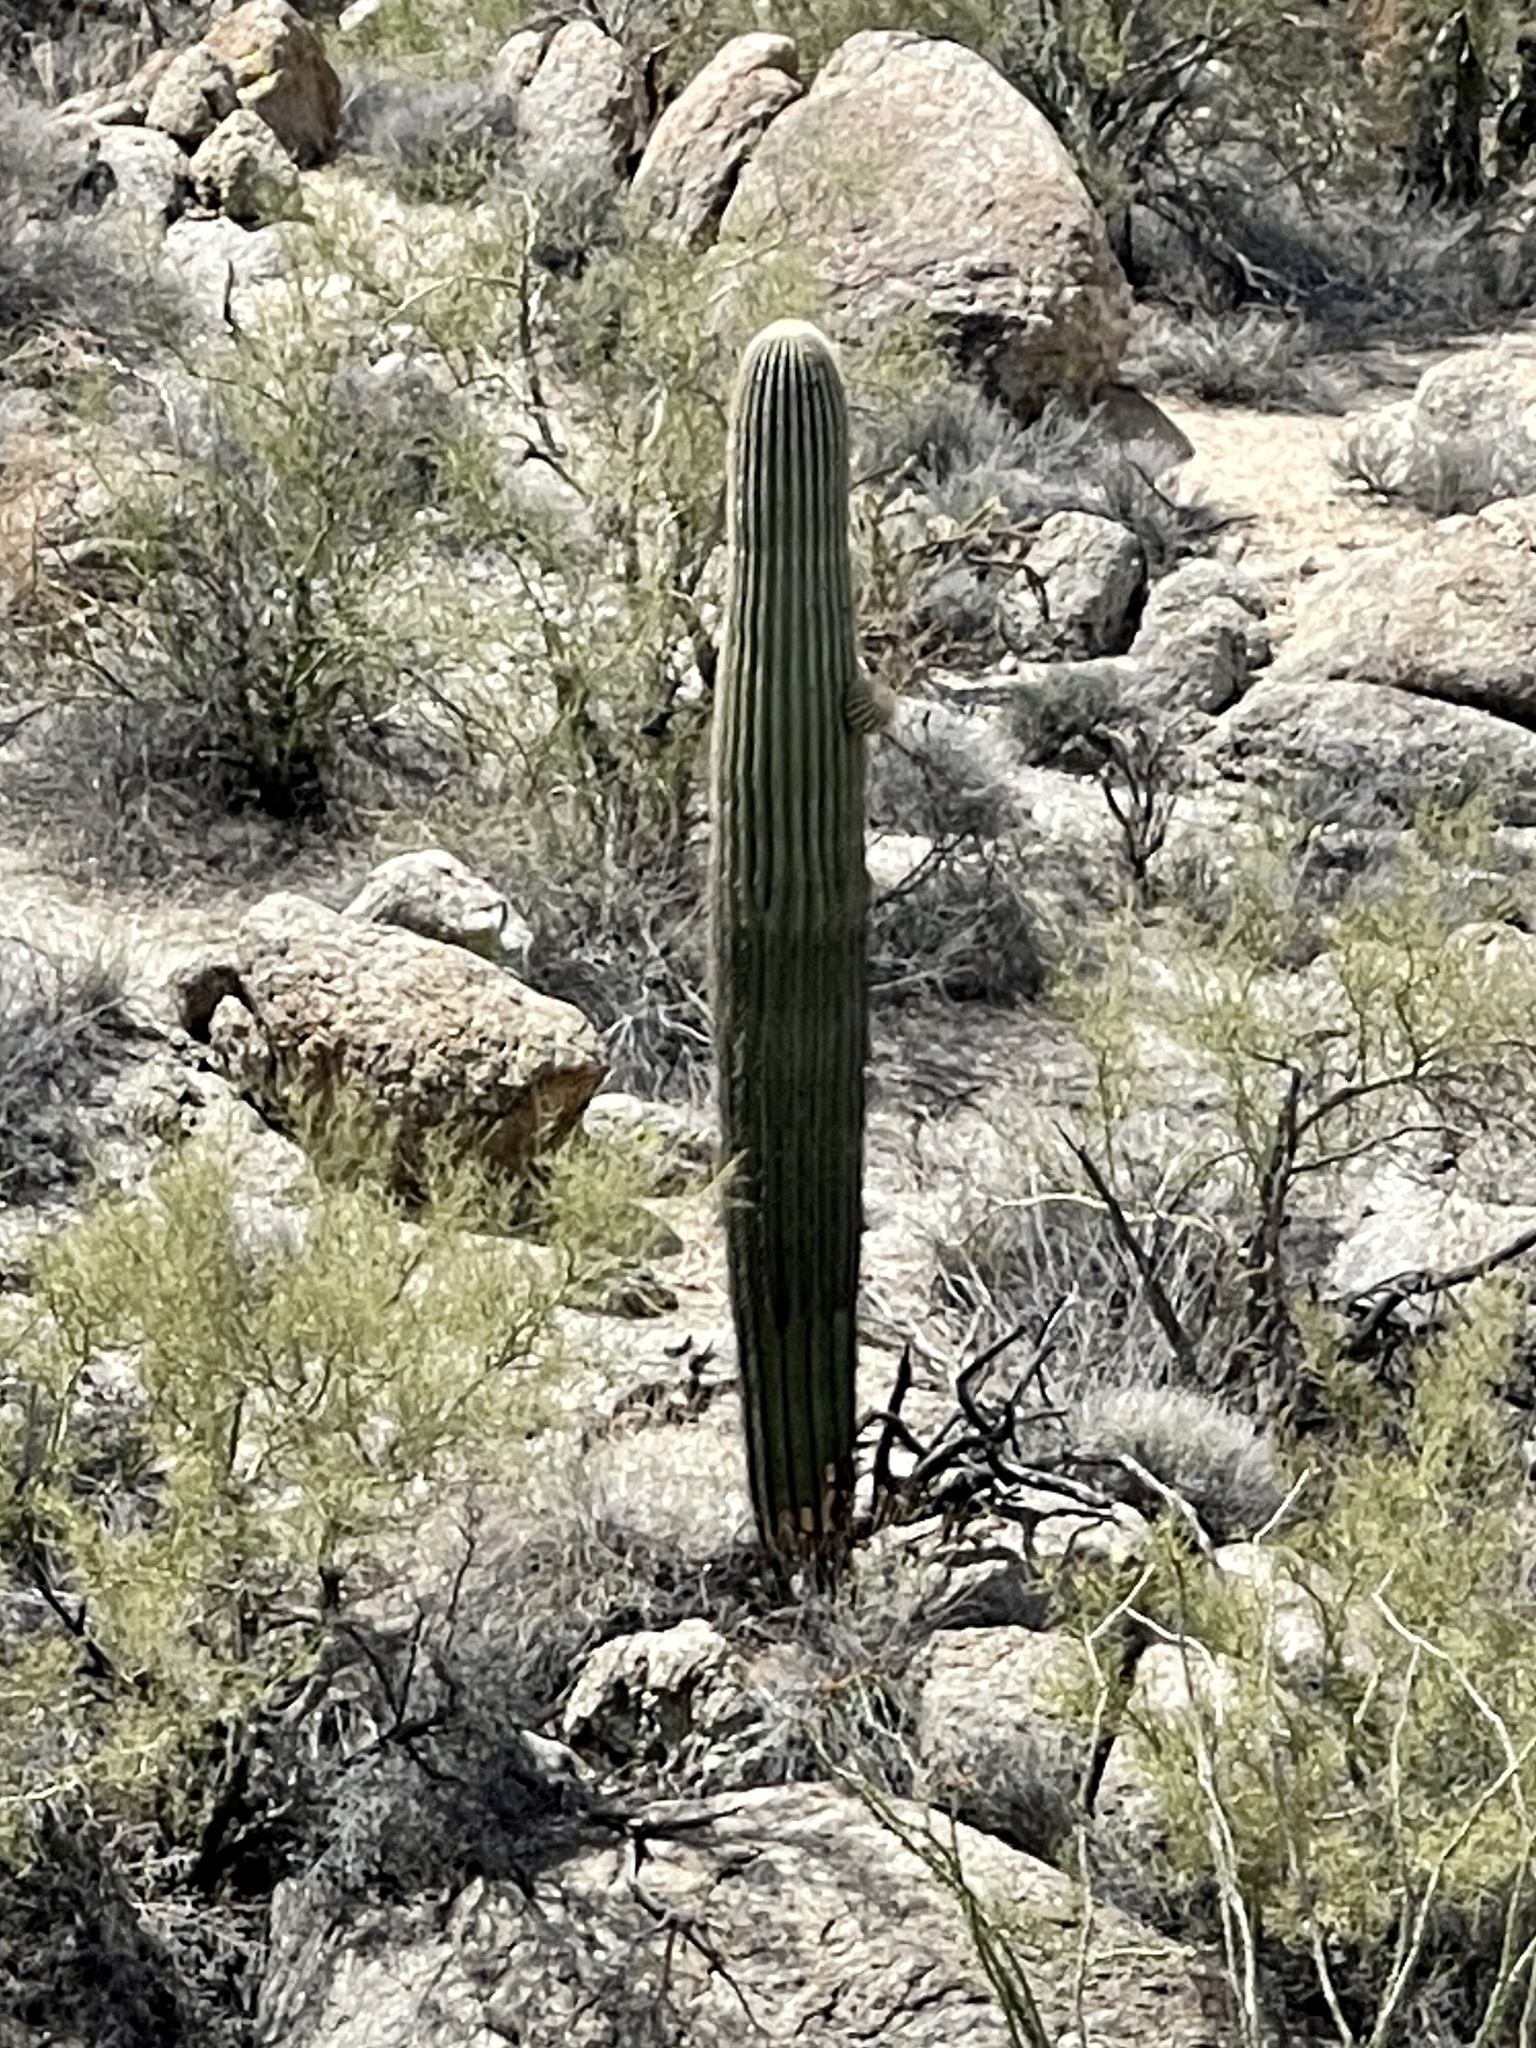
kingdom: Plantae
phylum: Tracheophyta
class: Magnoliopsida
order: Caryophyllales
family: Cactaceae
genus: Carnegiea
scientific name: Carnegiea gigantea
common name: Saguaro
